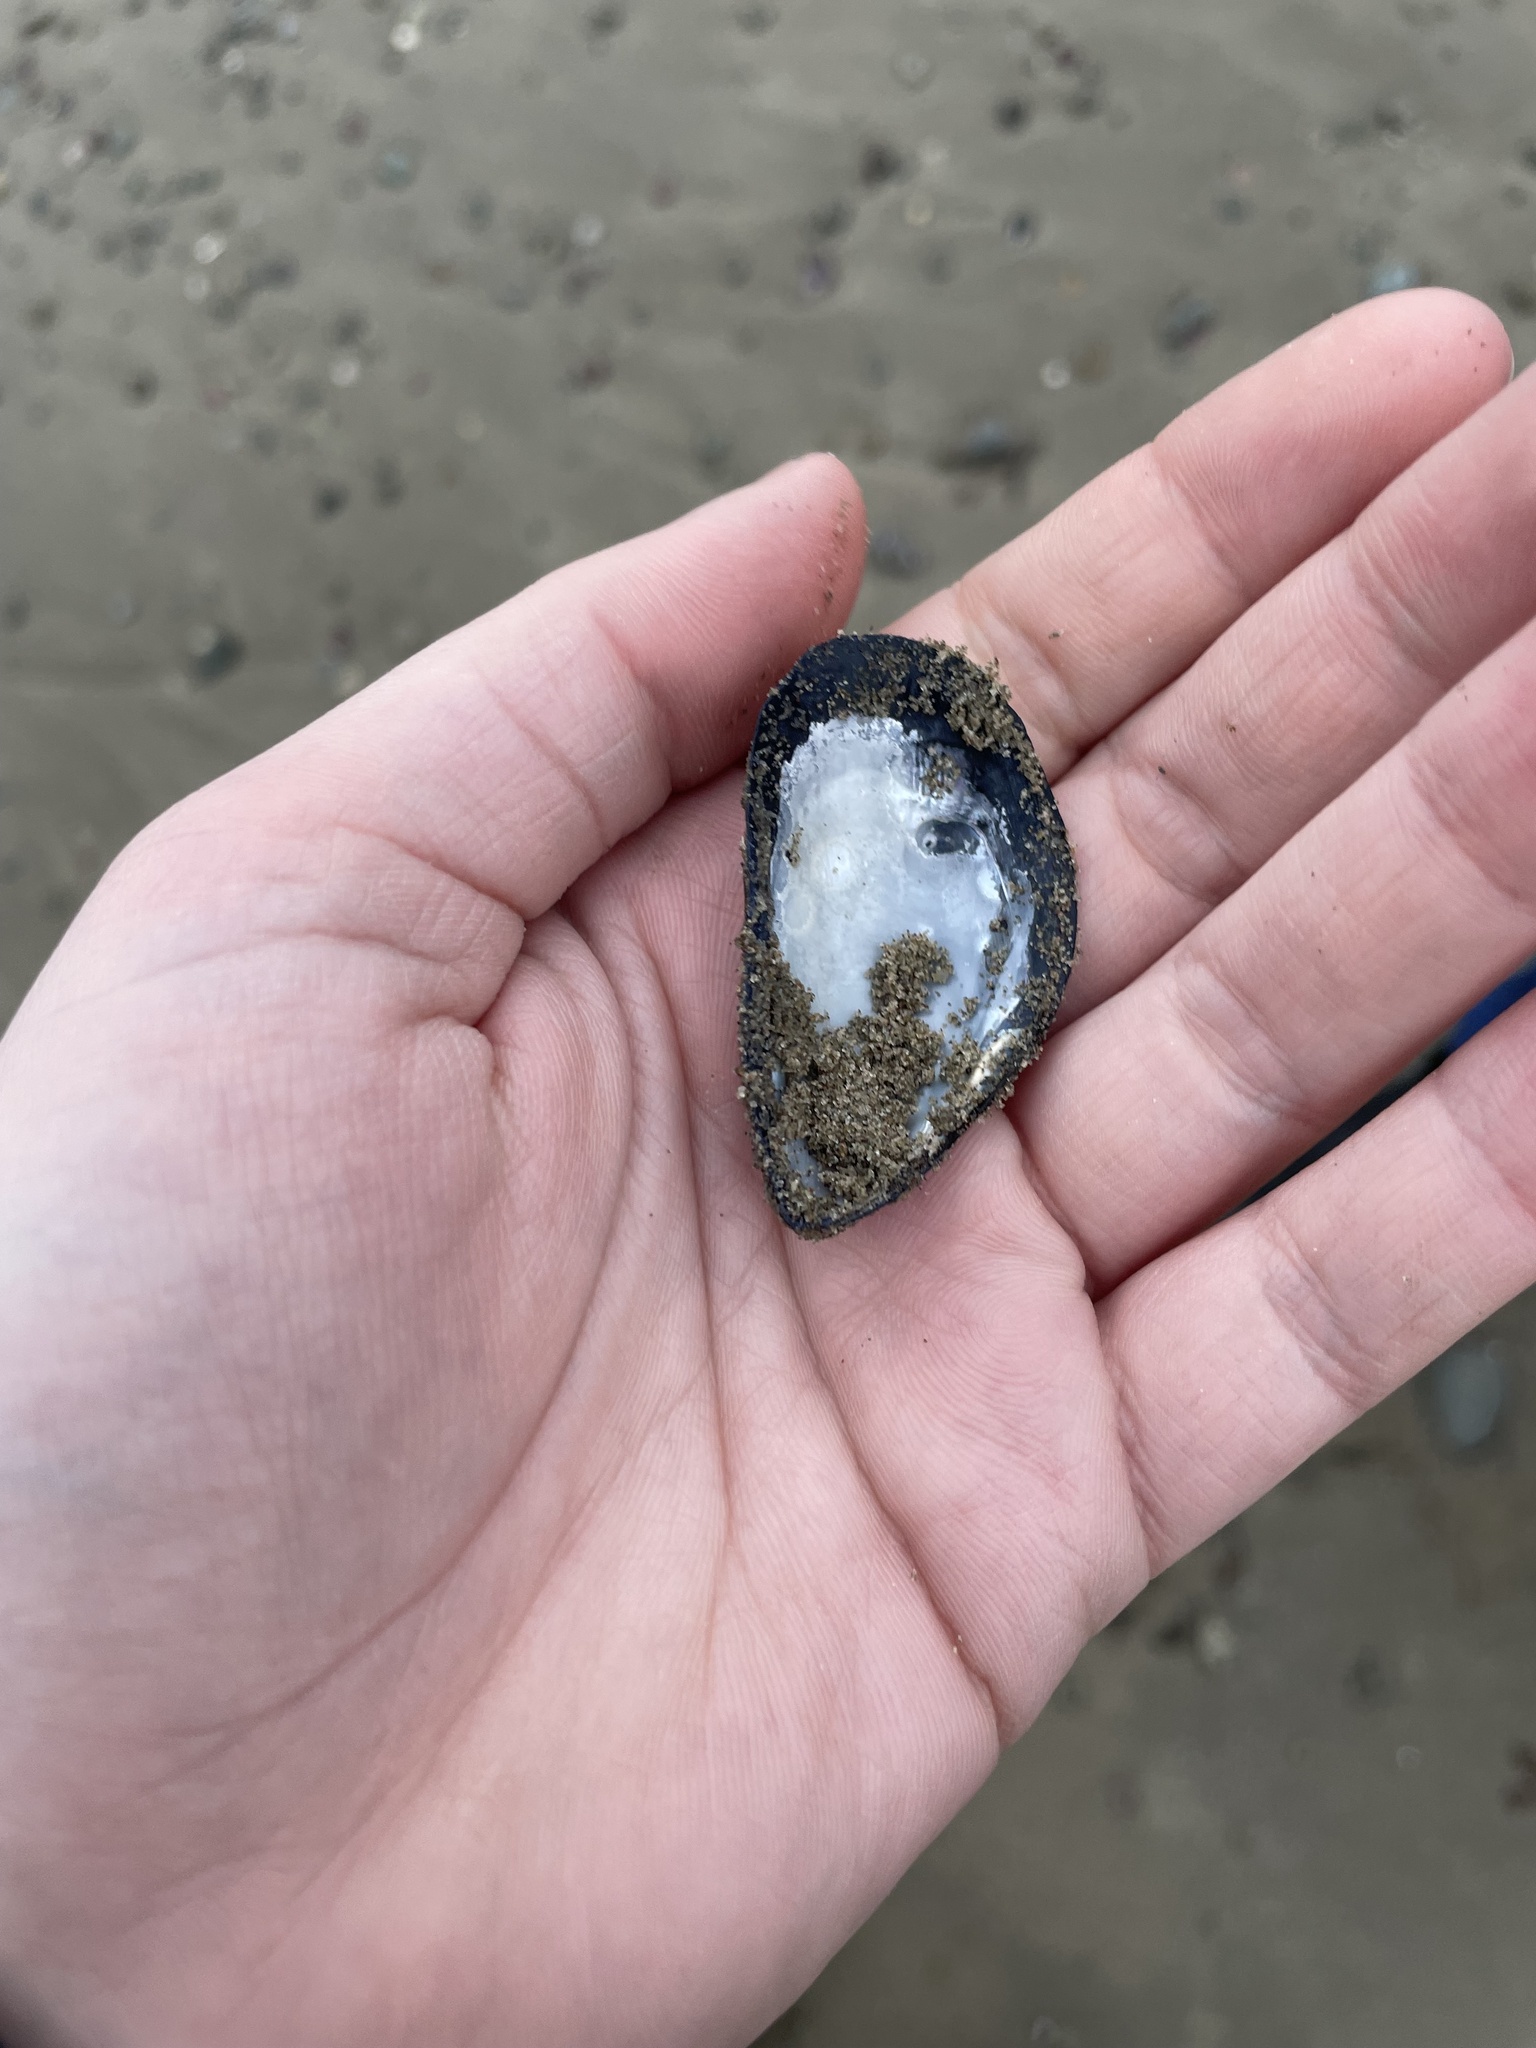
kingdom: Animalia
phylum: Mollusca
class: Bivalvia
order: Mytilida
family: Mytilidae
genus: Mytilus
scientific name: Mytilus
